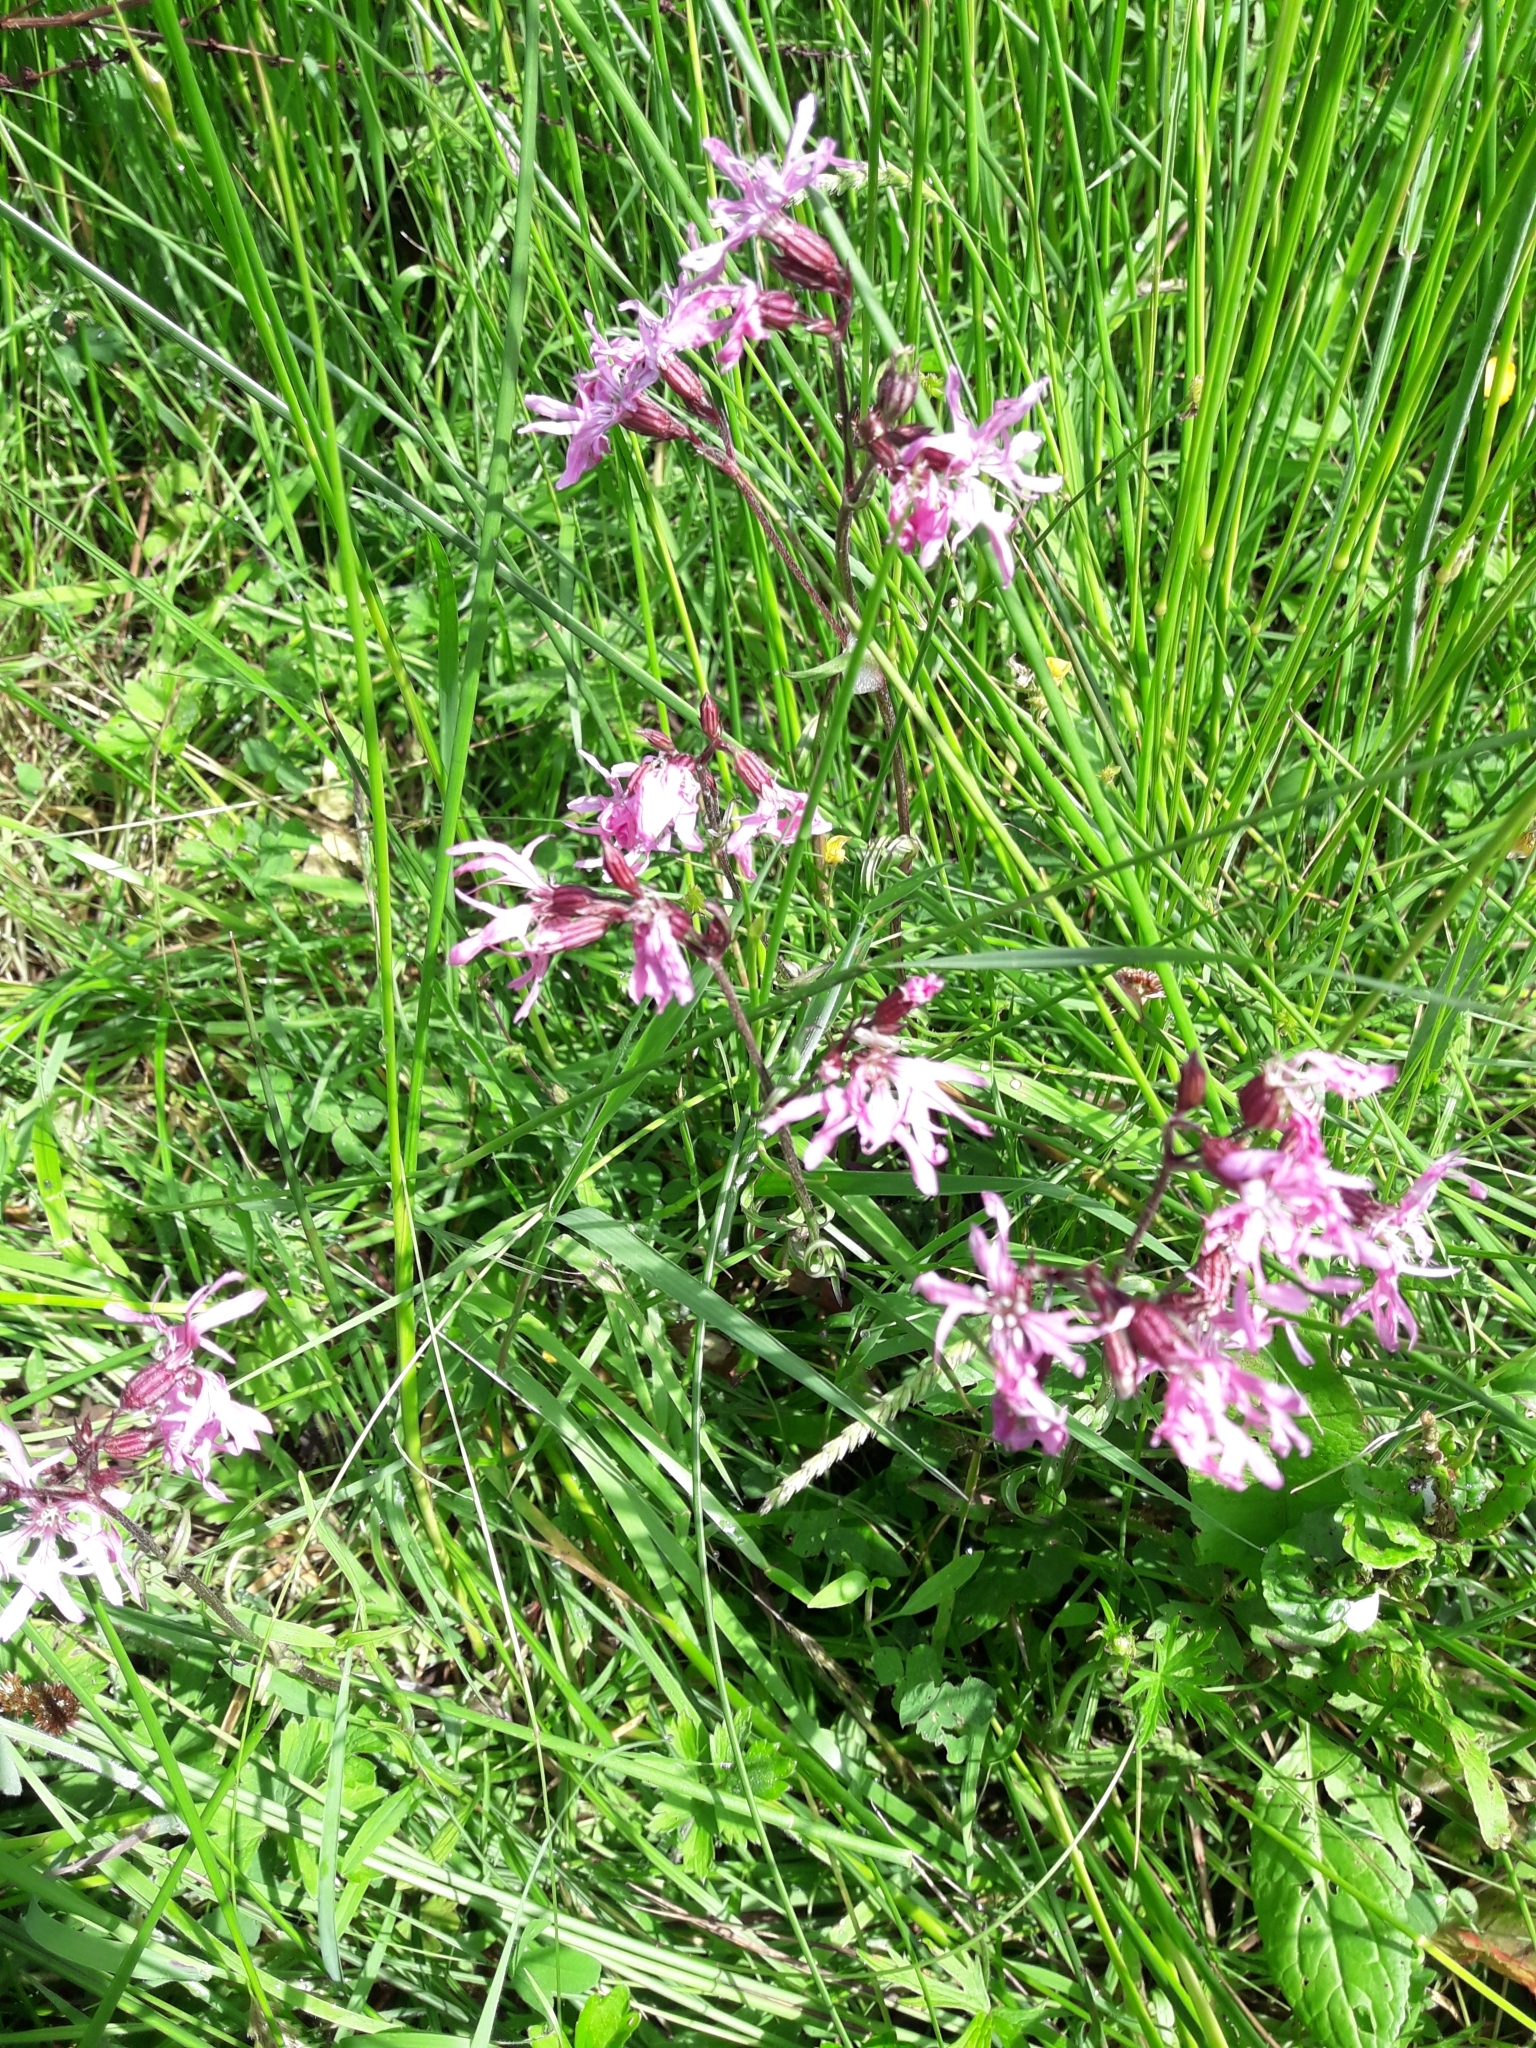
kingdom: Plantae
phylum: Tracheophyta
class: Magnoliopsida
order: Caryophyllales
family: Caryophyllaceae
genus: Silene
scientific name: Silene flos-cuculi
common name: Ragged-robin
